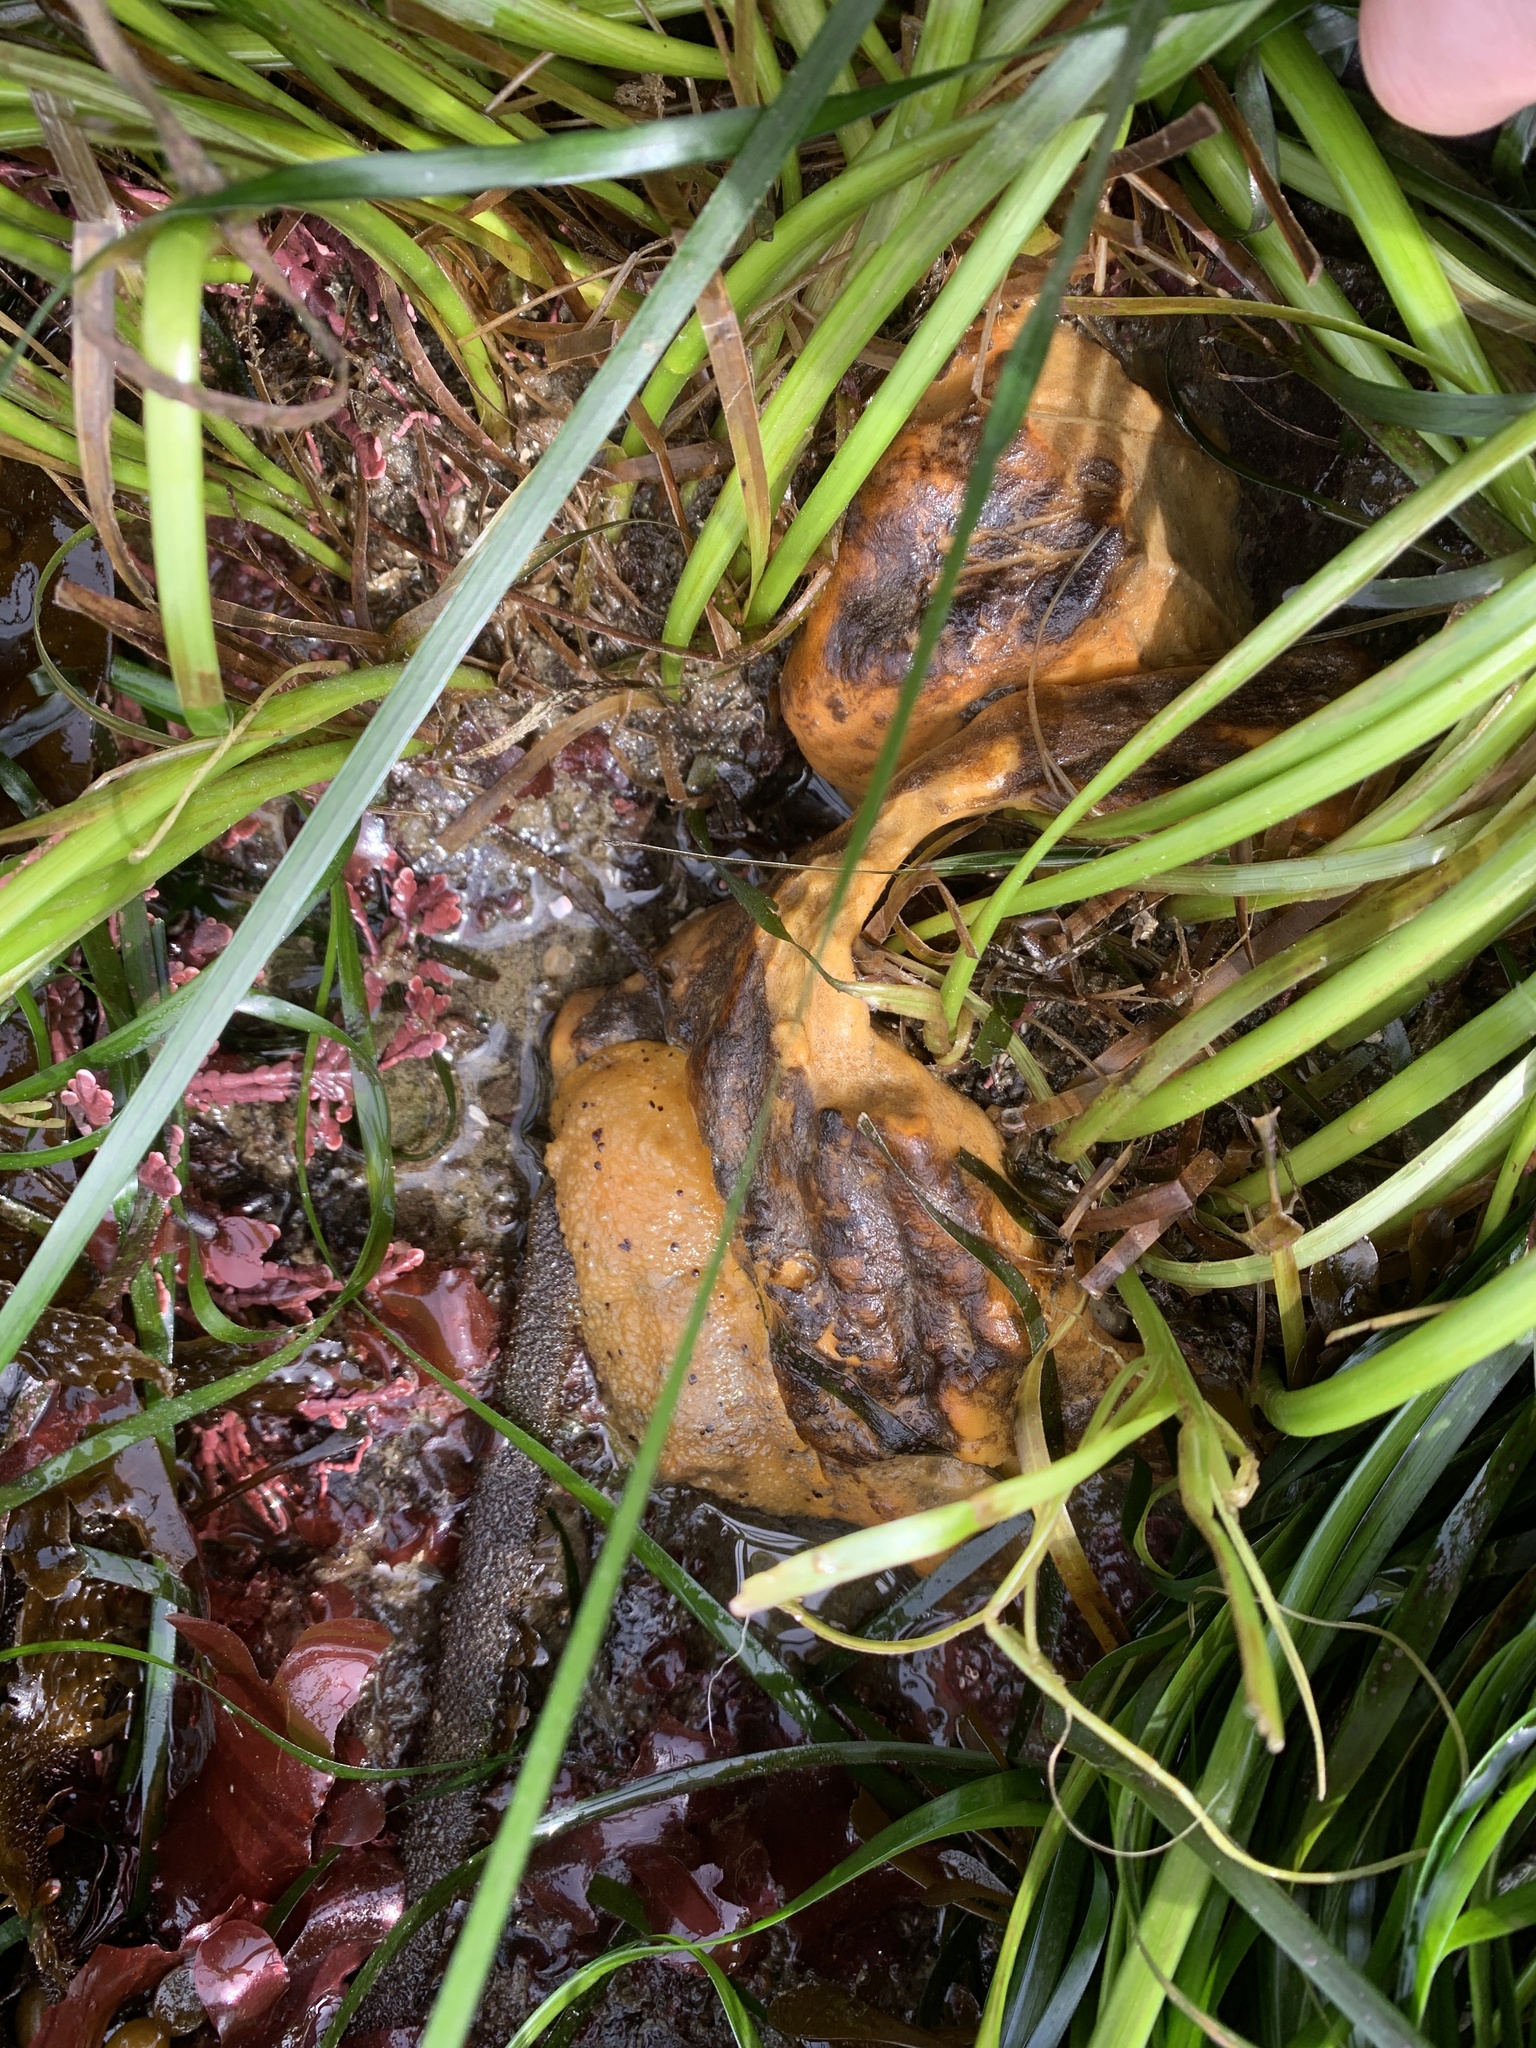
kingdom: Animalia
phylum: Mollusca
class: Gastropoda
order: Nudibranchia
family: Dorididae
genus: Doris
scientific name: Doris montereyensis
